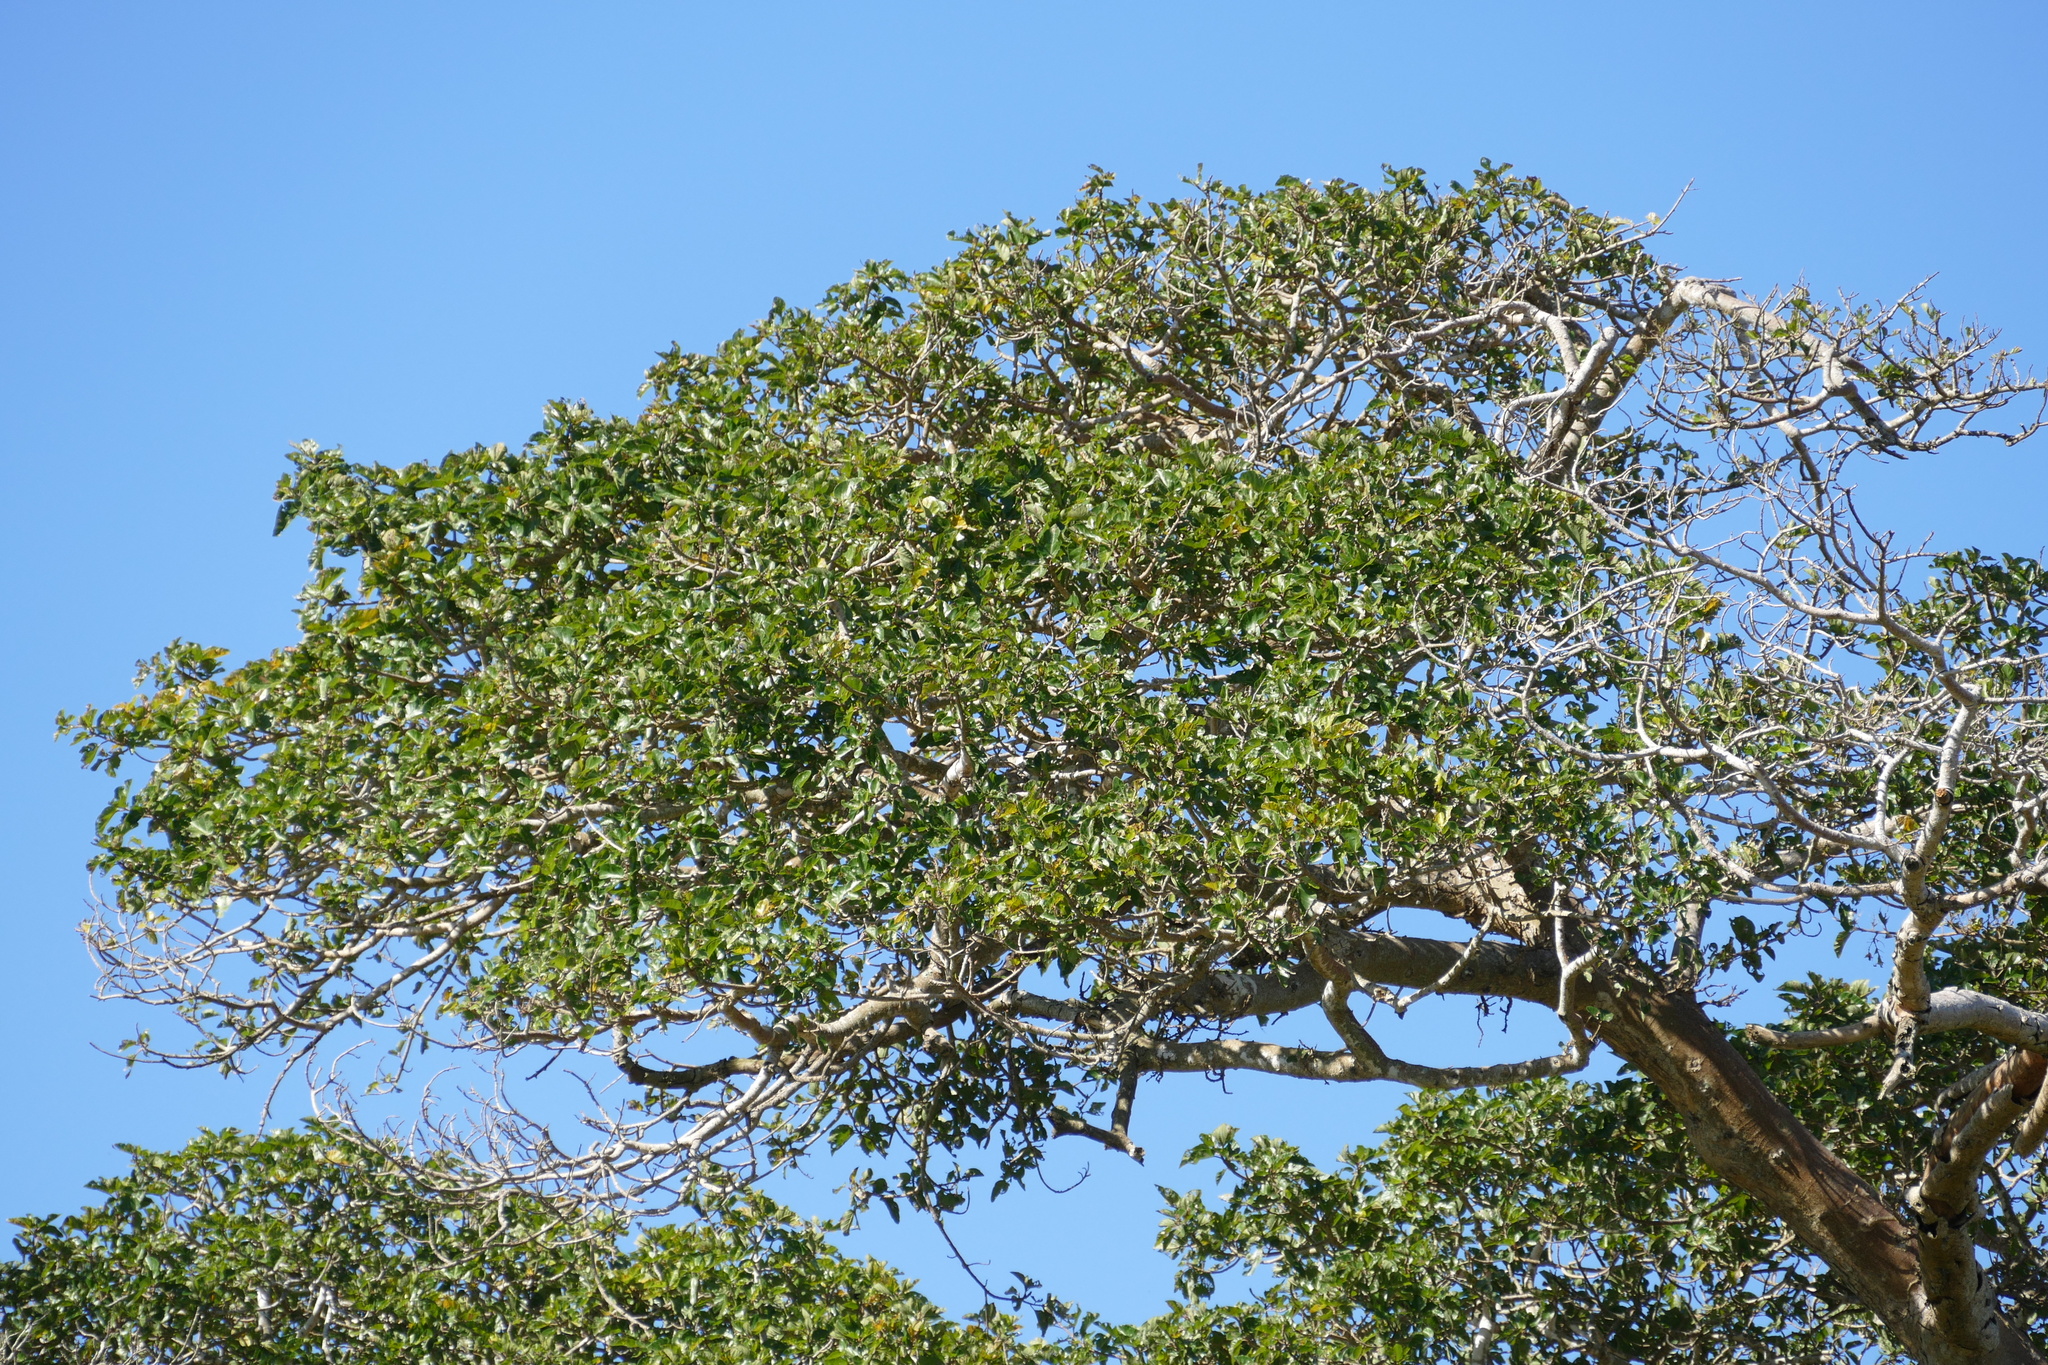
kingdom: Plantae
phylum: Tracheophyta
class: Magnoliopsida
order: Rosales
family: Moraceae
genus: Ficus
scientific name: Ficus sycomorus
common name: Sycomore
